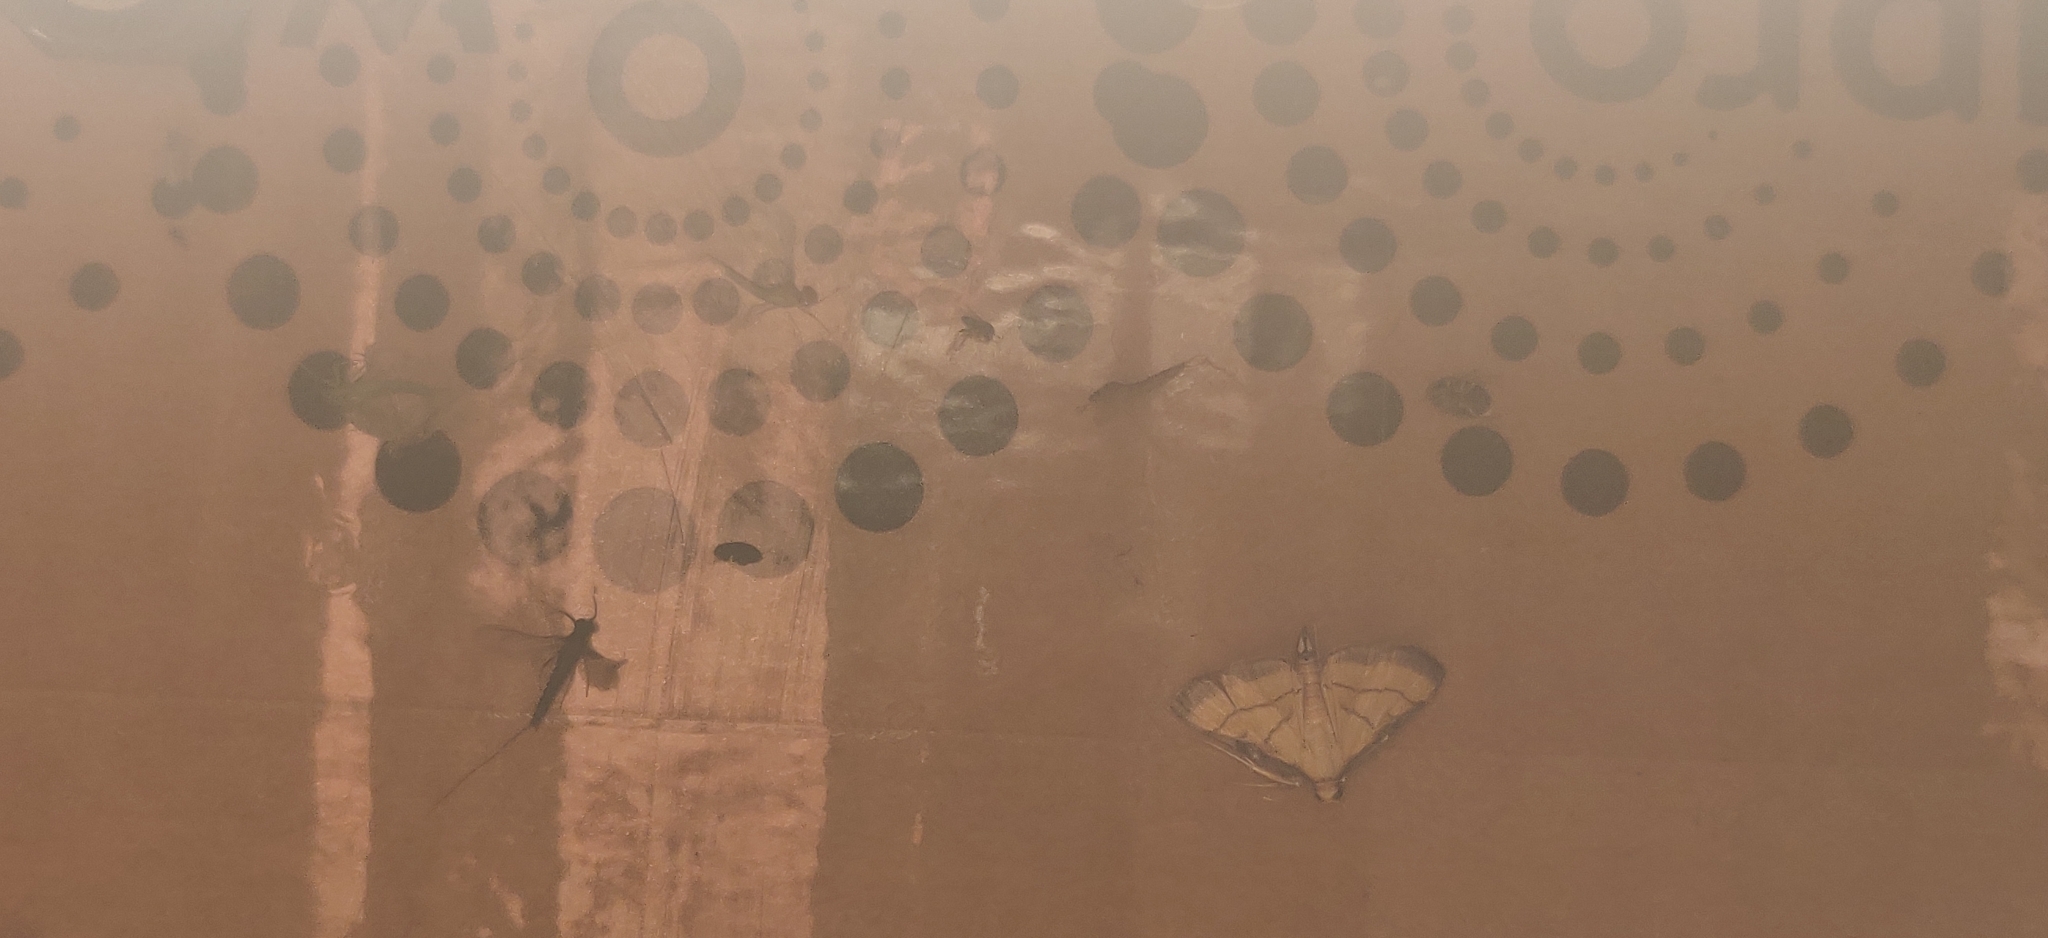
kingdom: Animalia
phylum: Arthropoda
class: Insecta
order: Lepidoptera
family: Crambidae
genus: Cnaphalocrocis
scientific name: Cnaphalocrocis medinalis
